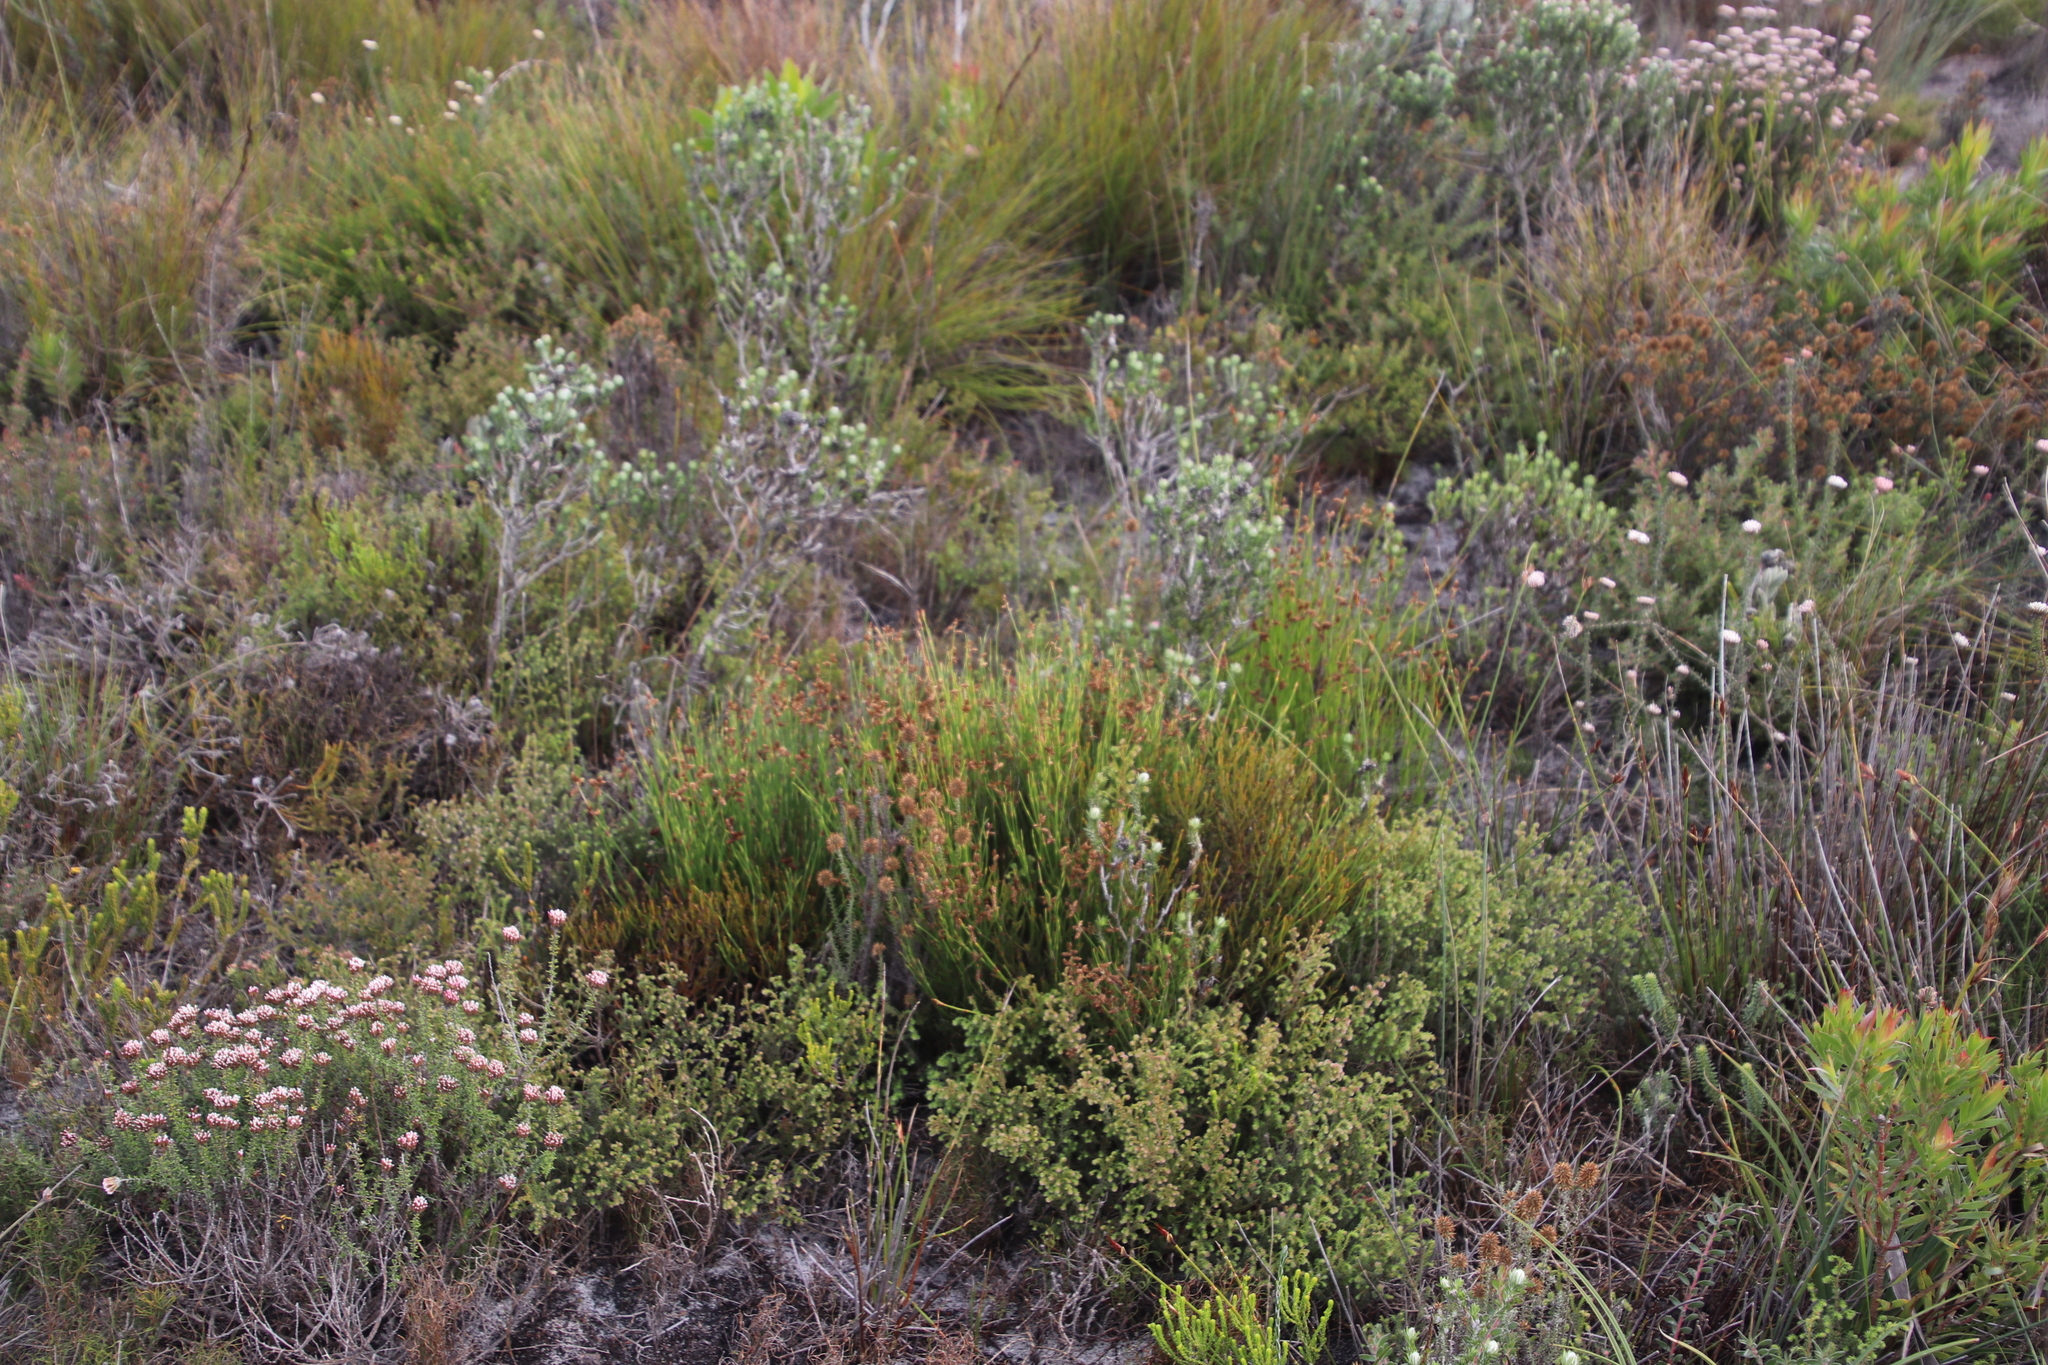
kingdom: Plantae
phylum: Tracheophyta
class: Liliopsida
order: Poales
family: Restionaceae
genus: Mastersiella
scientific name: Mastersiella digitata
